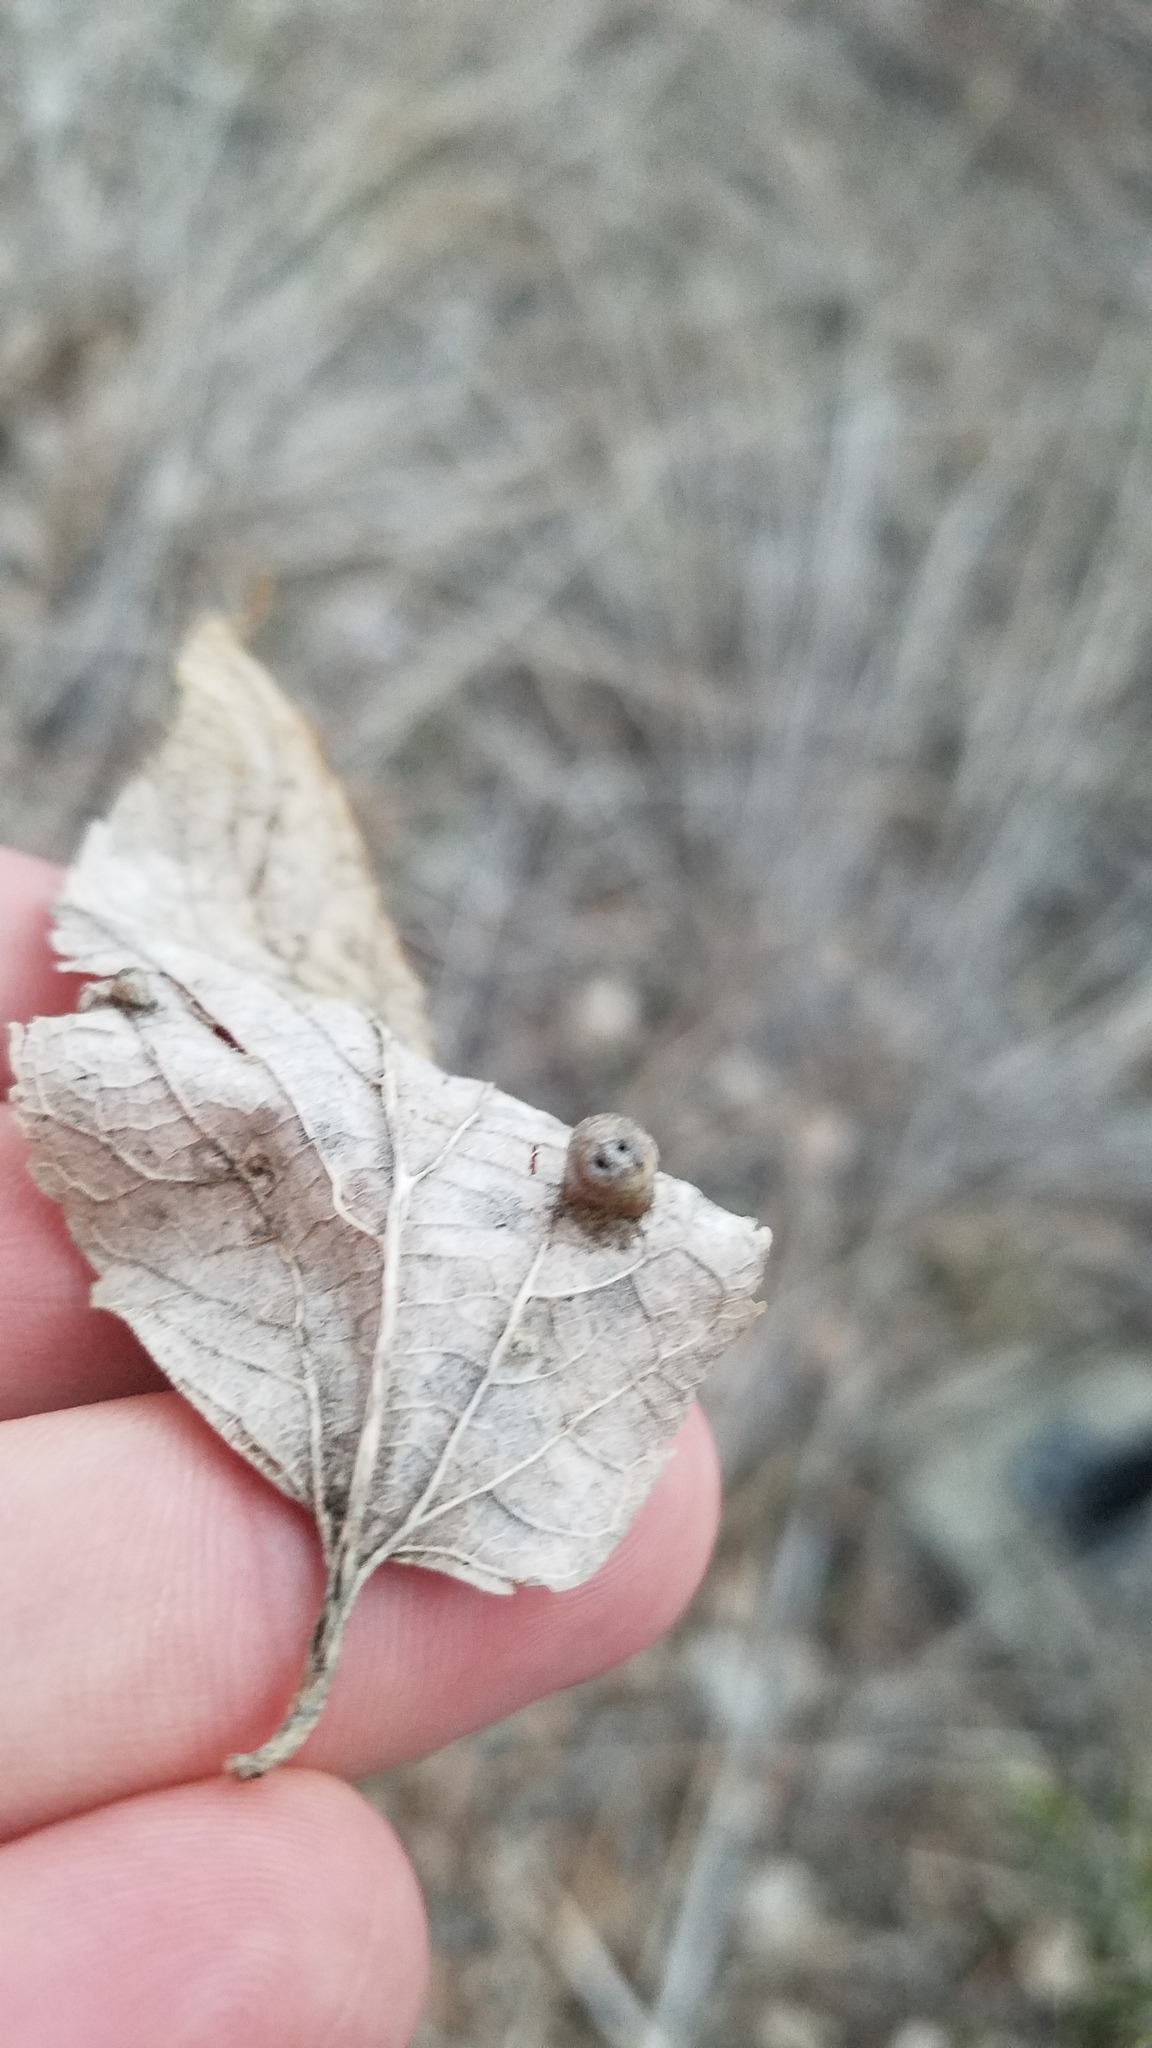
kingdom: Animalia
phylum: Arthropoda
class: Insecta
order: Hemiptera
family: Aphalaridae
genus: Pachypsylla
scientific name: Pachypsylla celtidismamma
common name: Hackberry nipplegall psyllid
